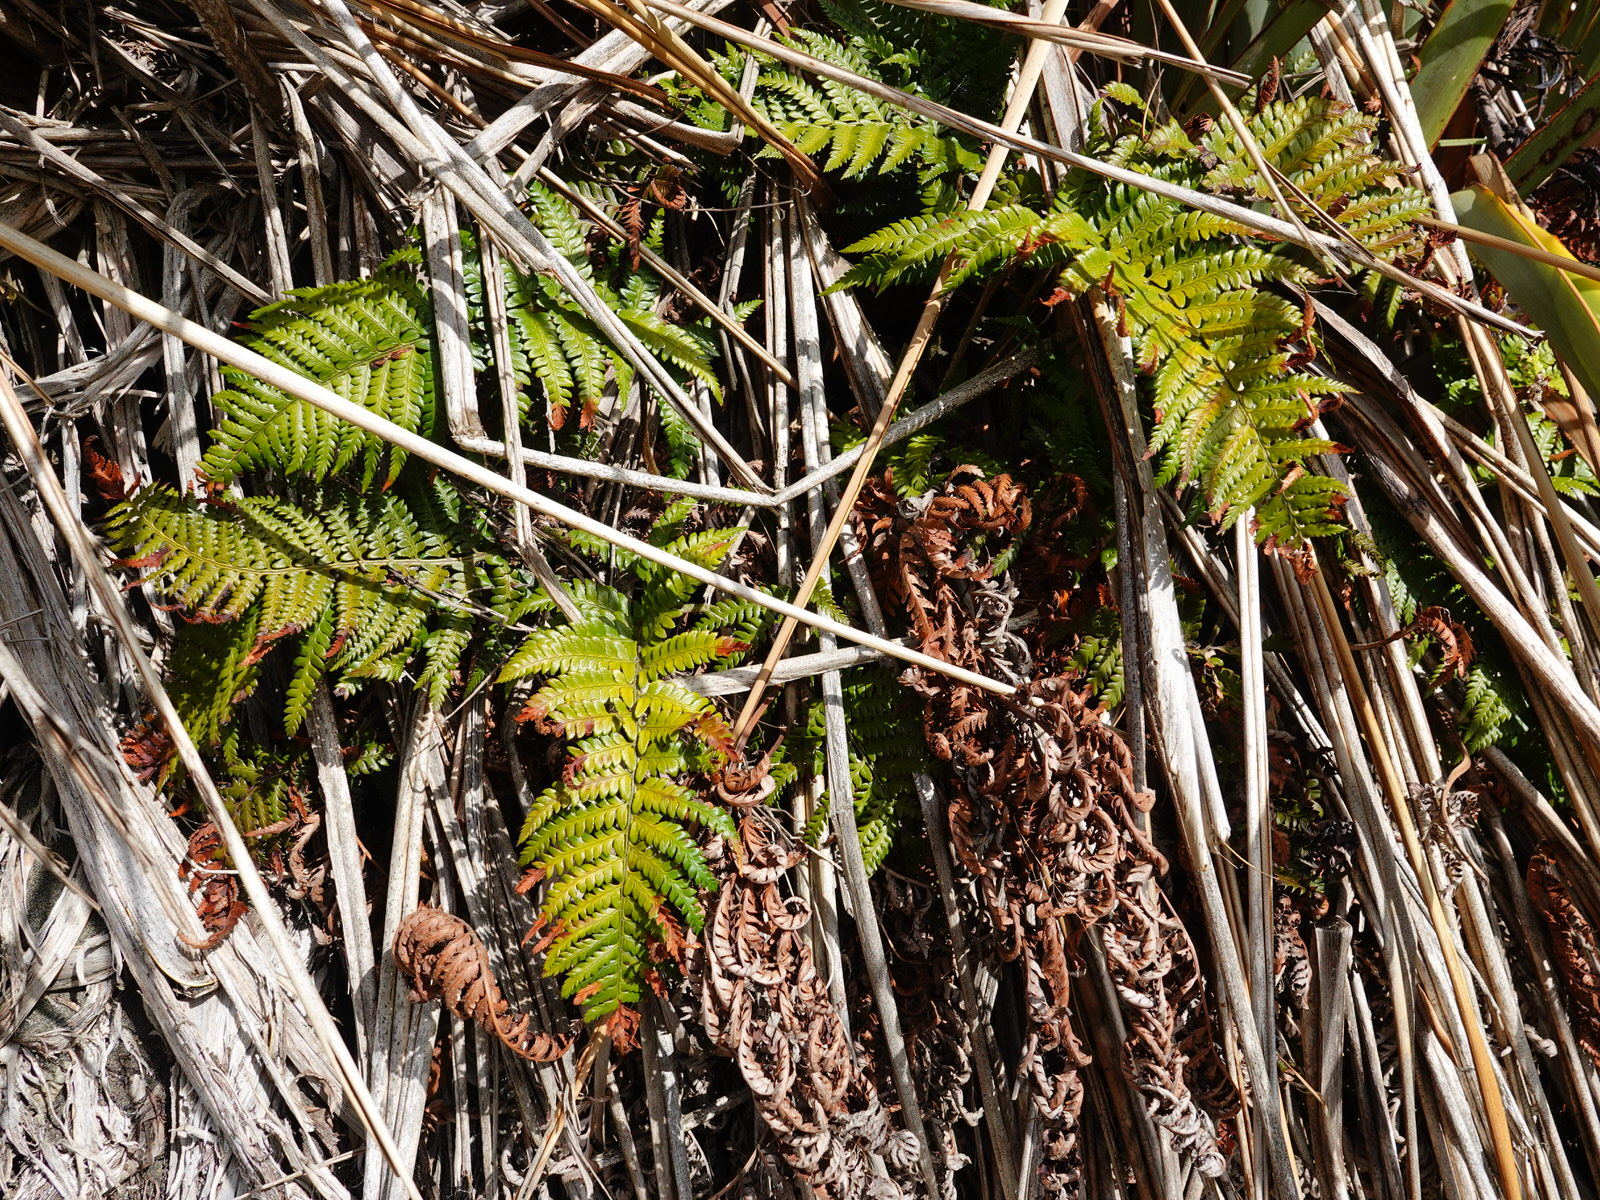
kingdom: Plantae
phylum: Tracheophyta
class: Polypodiopsida
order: Polypodiales
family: Dryopteridaceae
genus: Polystichum
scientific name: Polystichum wawranum
